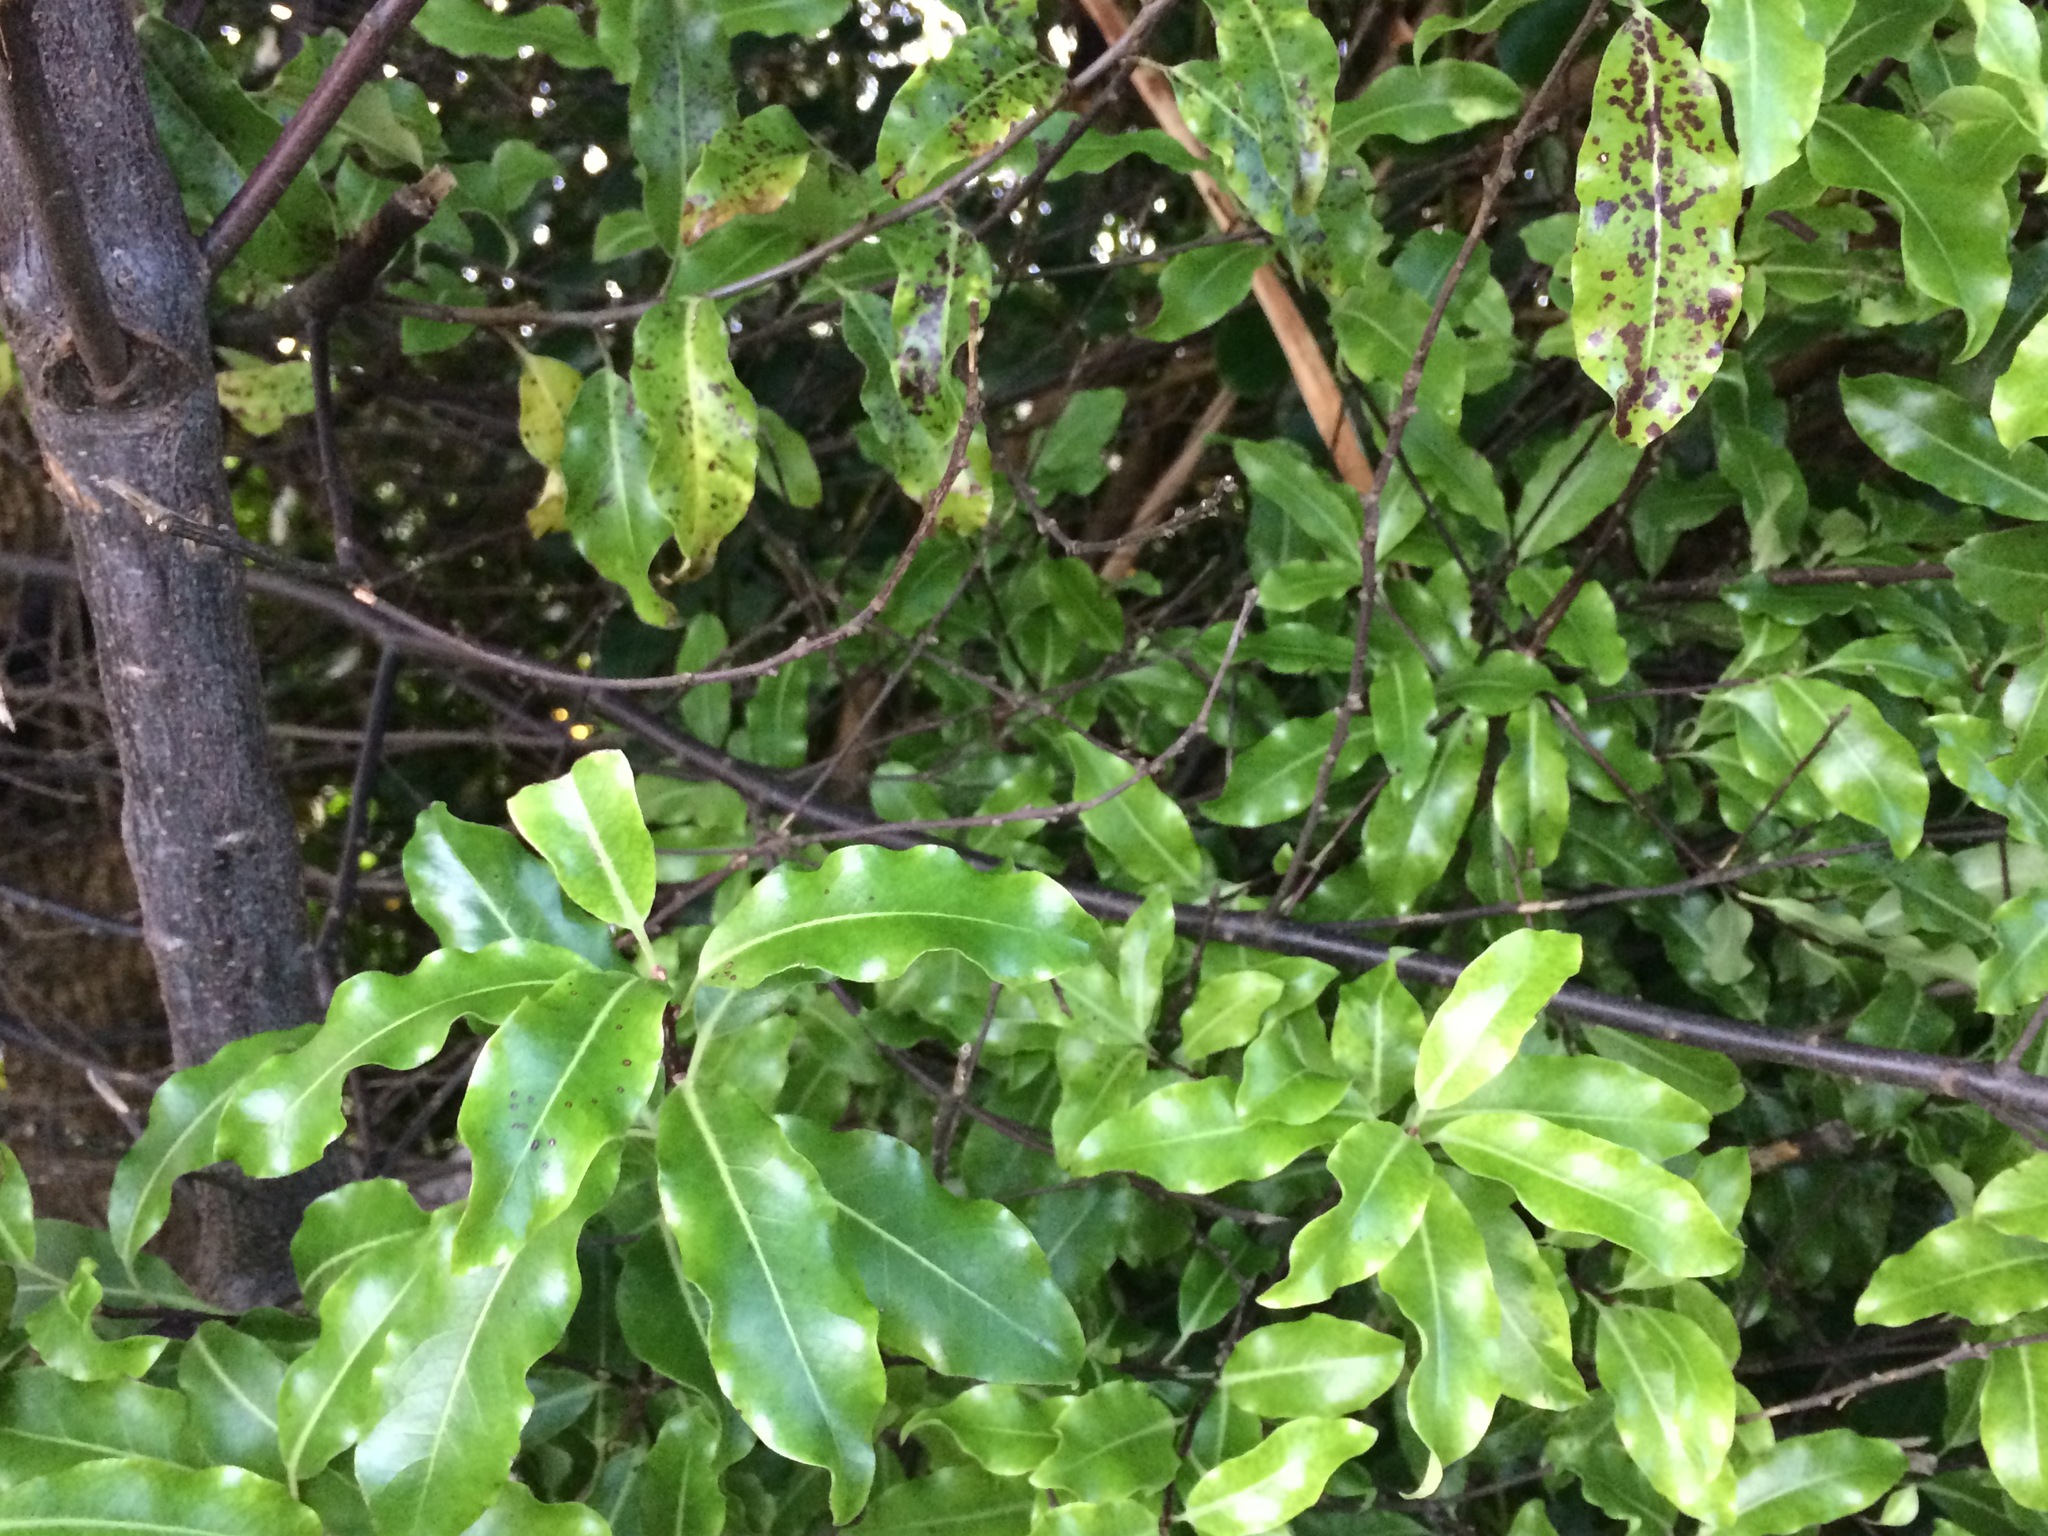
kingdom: Plantae
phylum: Tracheophyta
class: Magnoliopsida
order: Apiales
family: Pittosporaceae
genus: Pittosporum
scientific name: Pittosporum eugenioides
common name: Lemonwood
